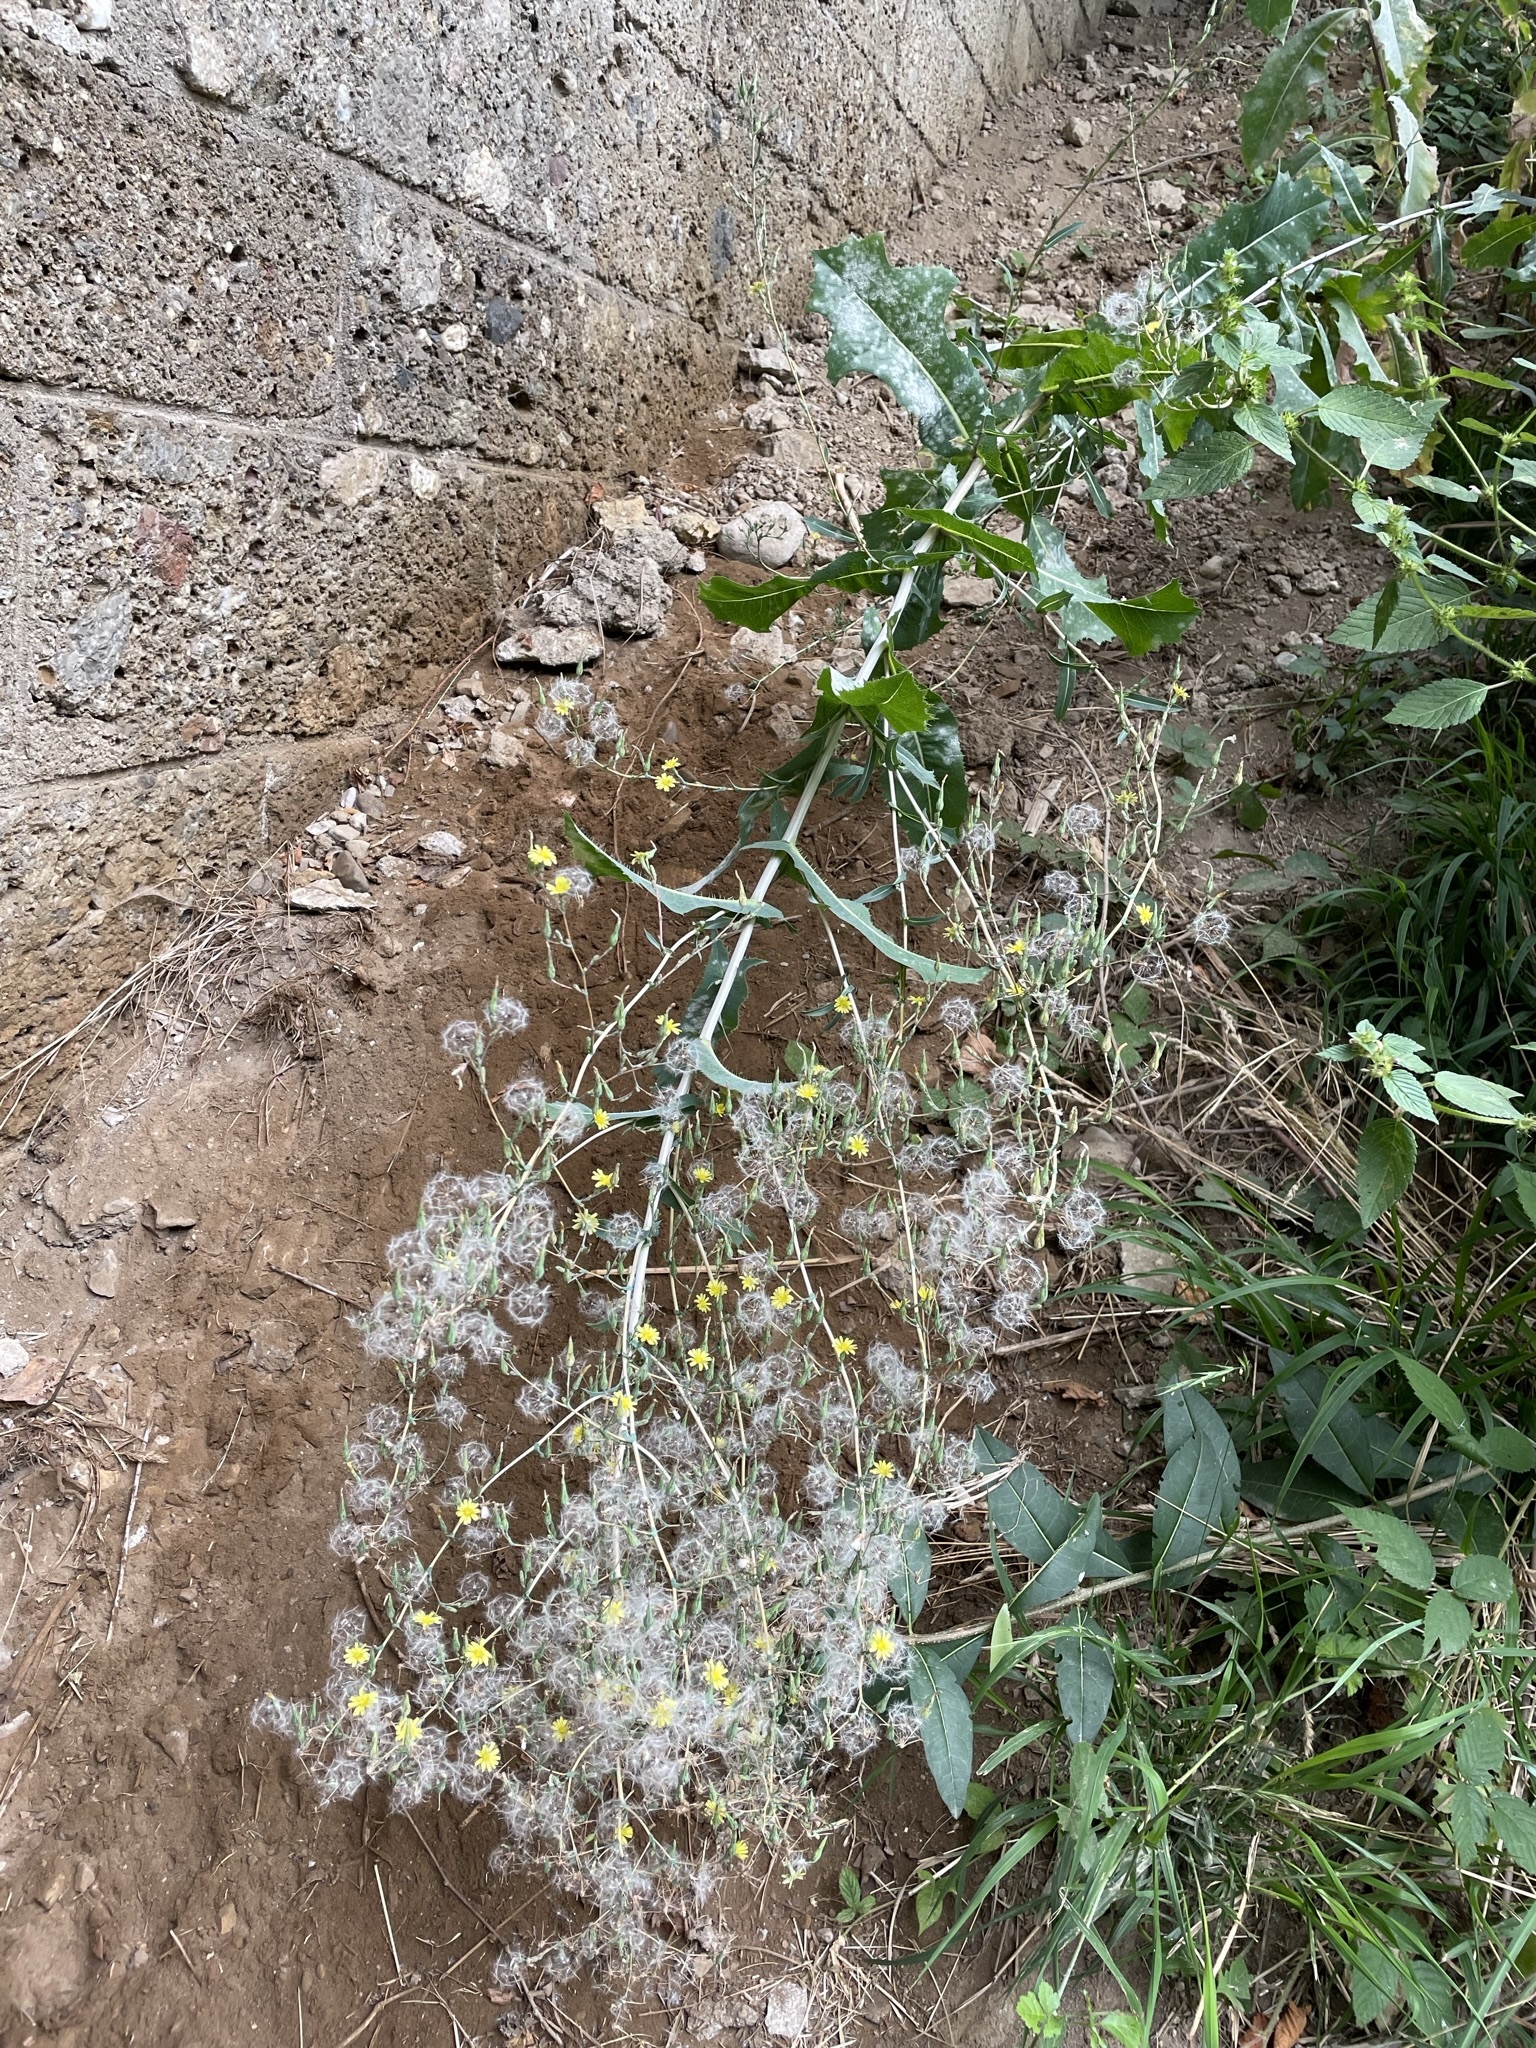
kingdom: Plantae
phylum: Tracheophyta
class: Magnoliopsida
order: Asterales
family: Asteraceae
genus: Lactuca
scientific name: Lactuca serriola
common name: Prickly lettuce
